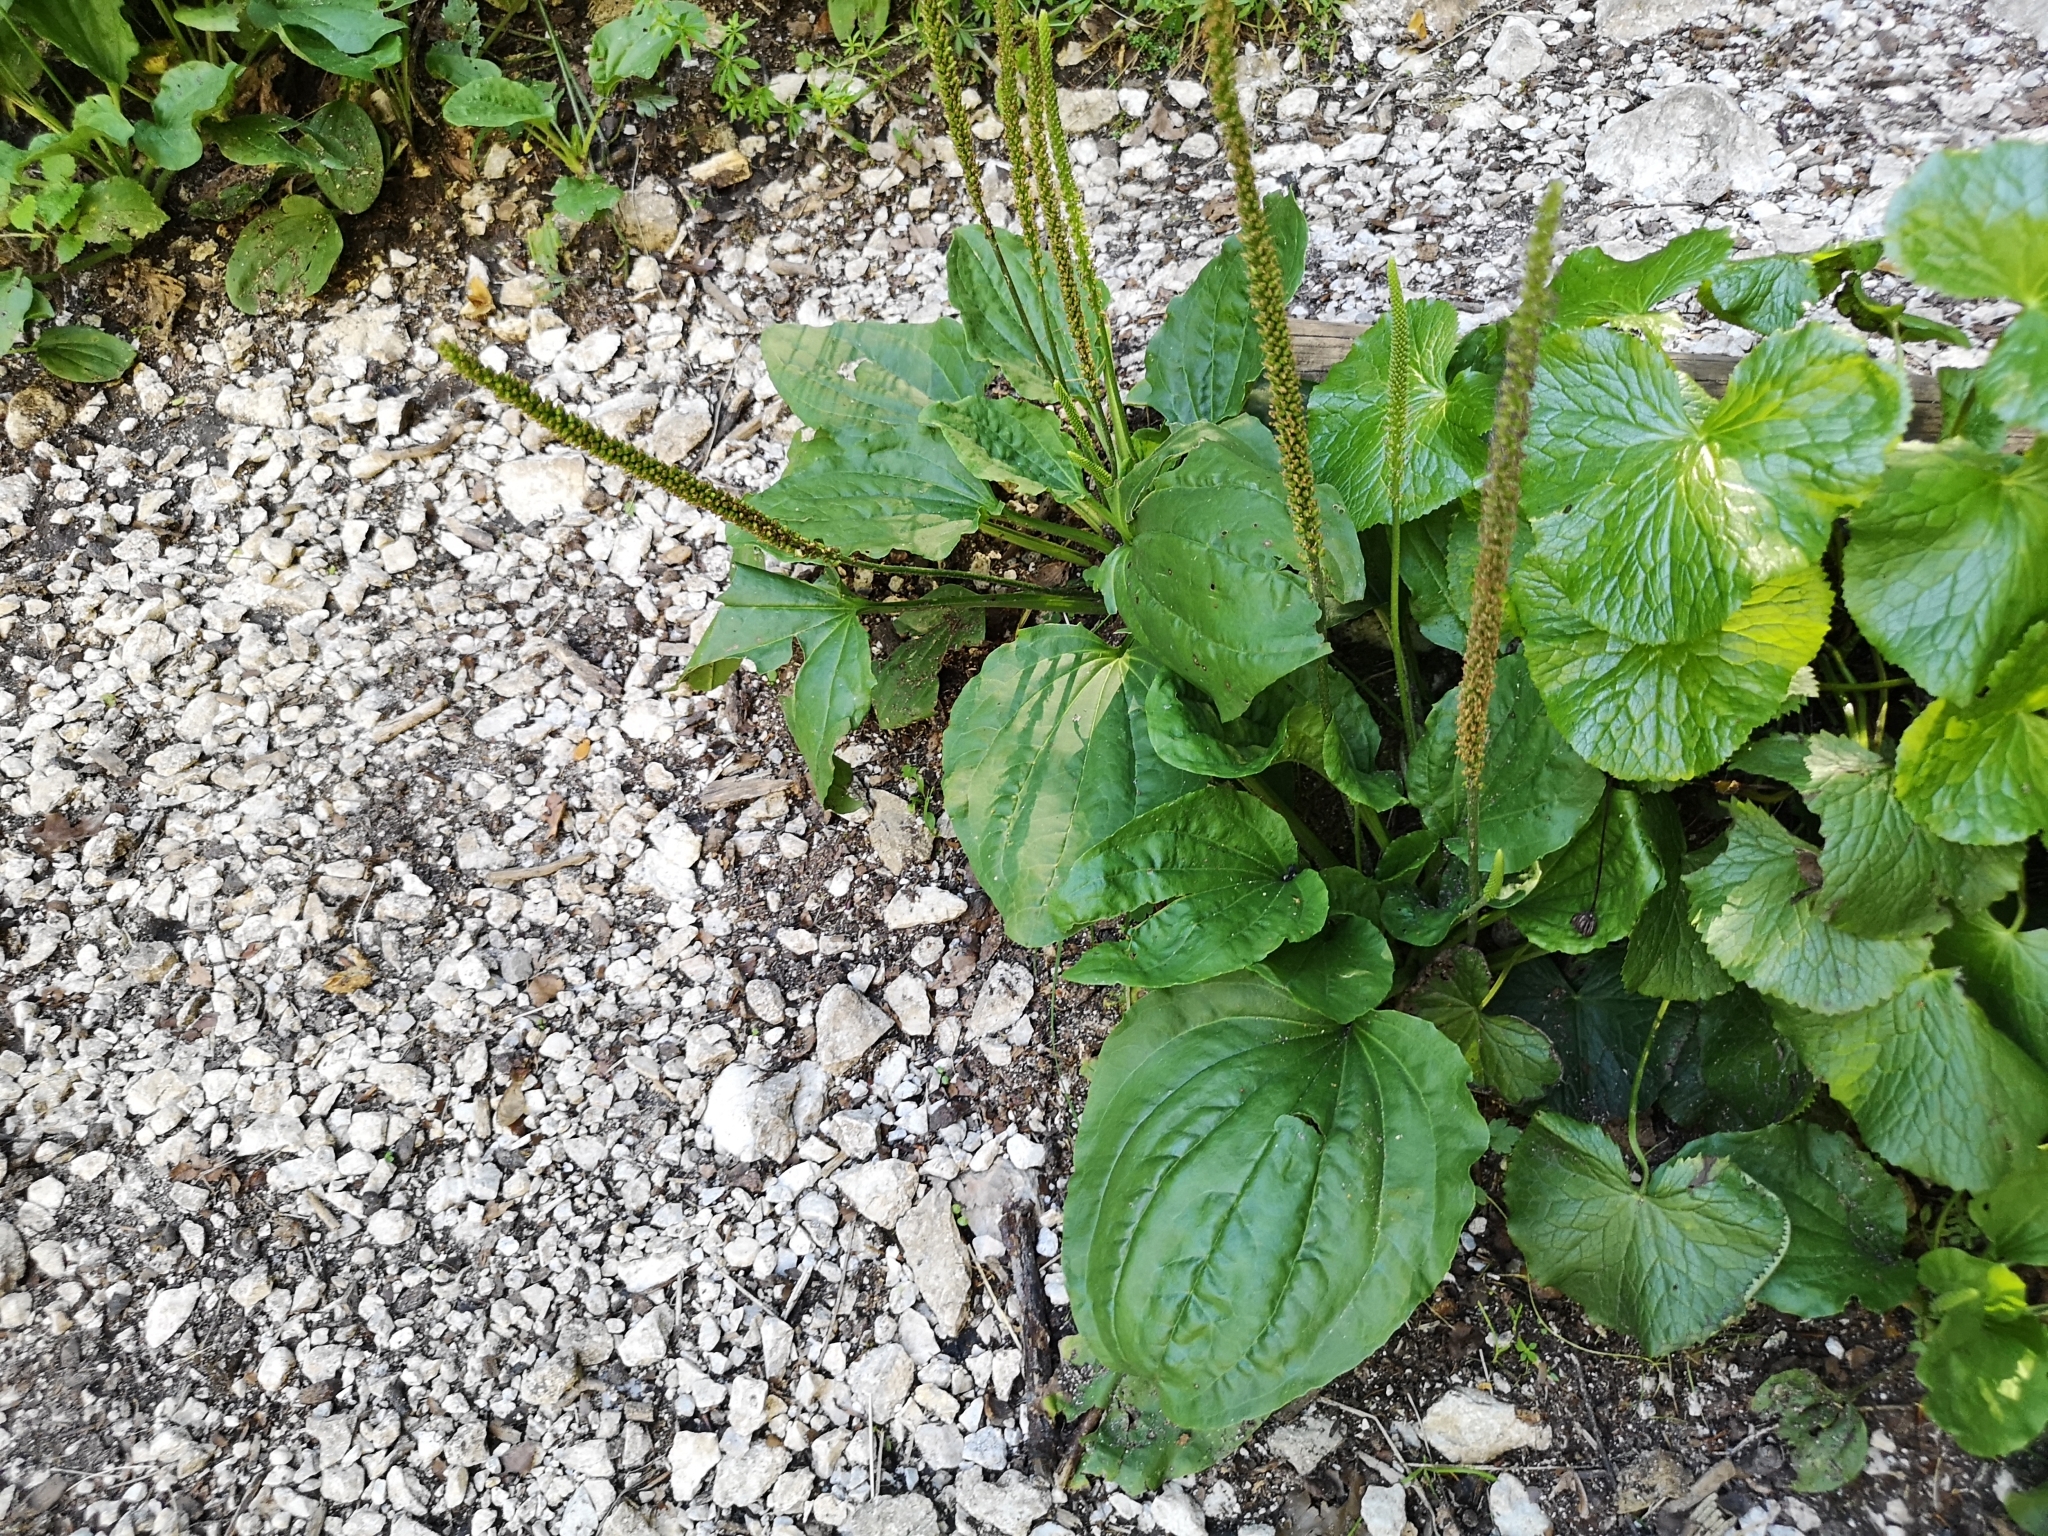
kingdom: Plantae
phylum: Tracheophyta
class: Magnoliopsida
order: Lamiales
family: Plantaginaceae
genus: Plantago
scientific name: Plantago major
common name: Common plantain
